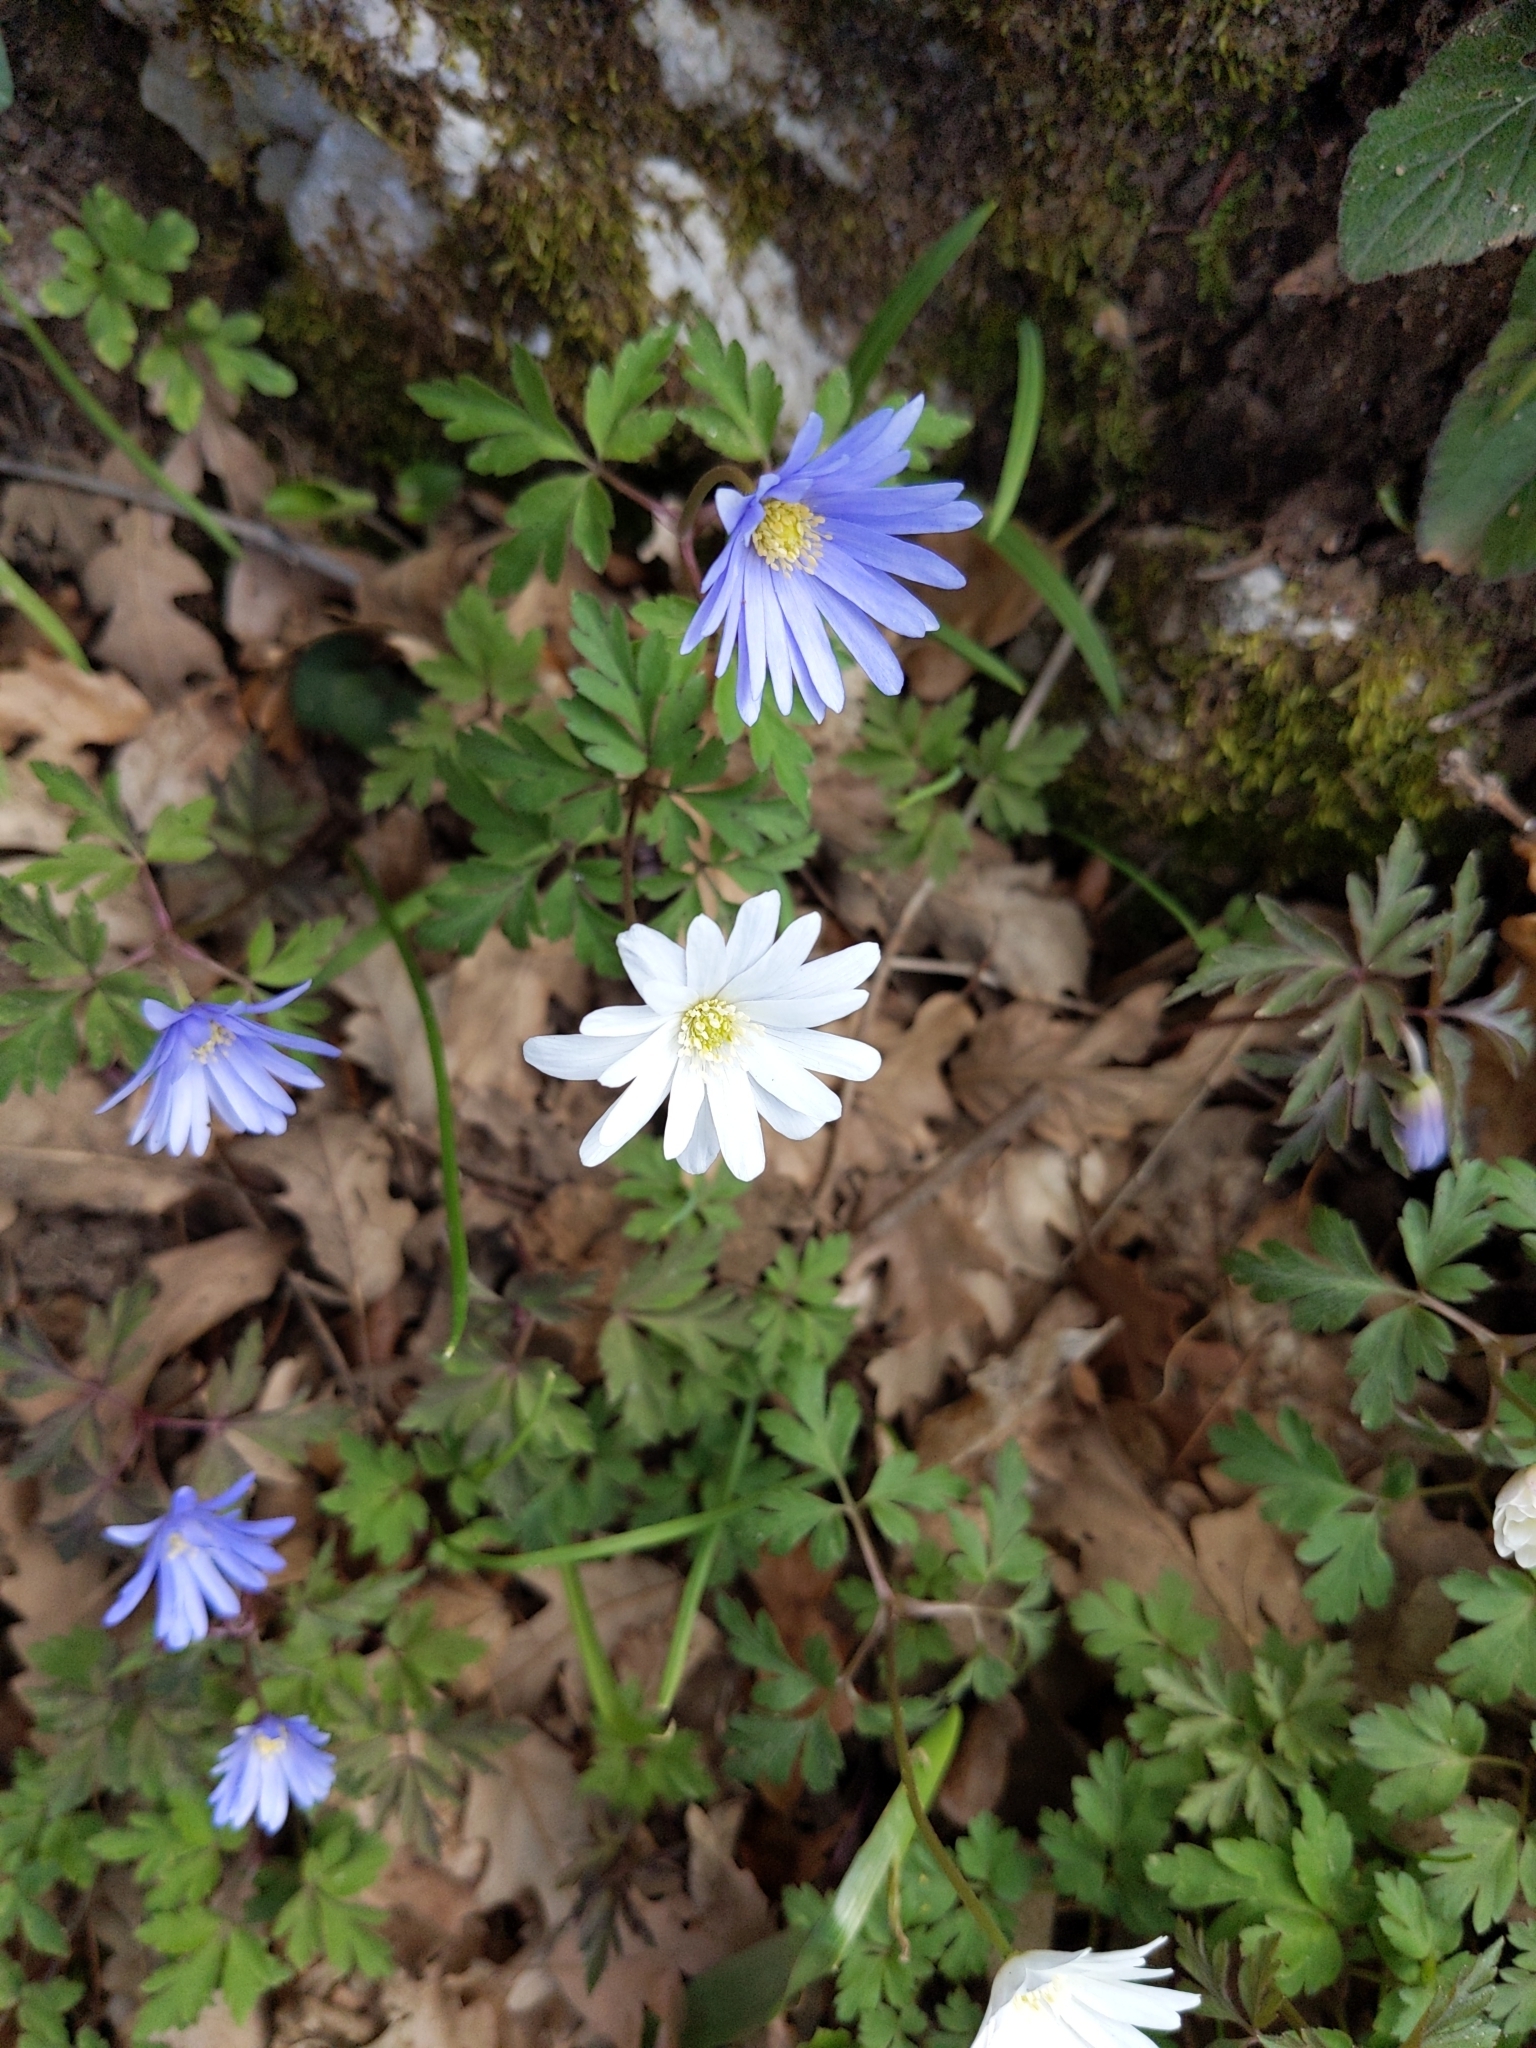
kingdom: Plantae
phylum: Tracheophyta
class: Magnoliopsida
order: Ranunculales
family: Ranunculaceae
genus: Anemone
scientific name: Anemone apennina
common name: Blue anemone
